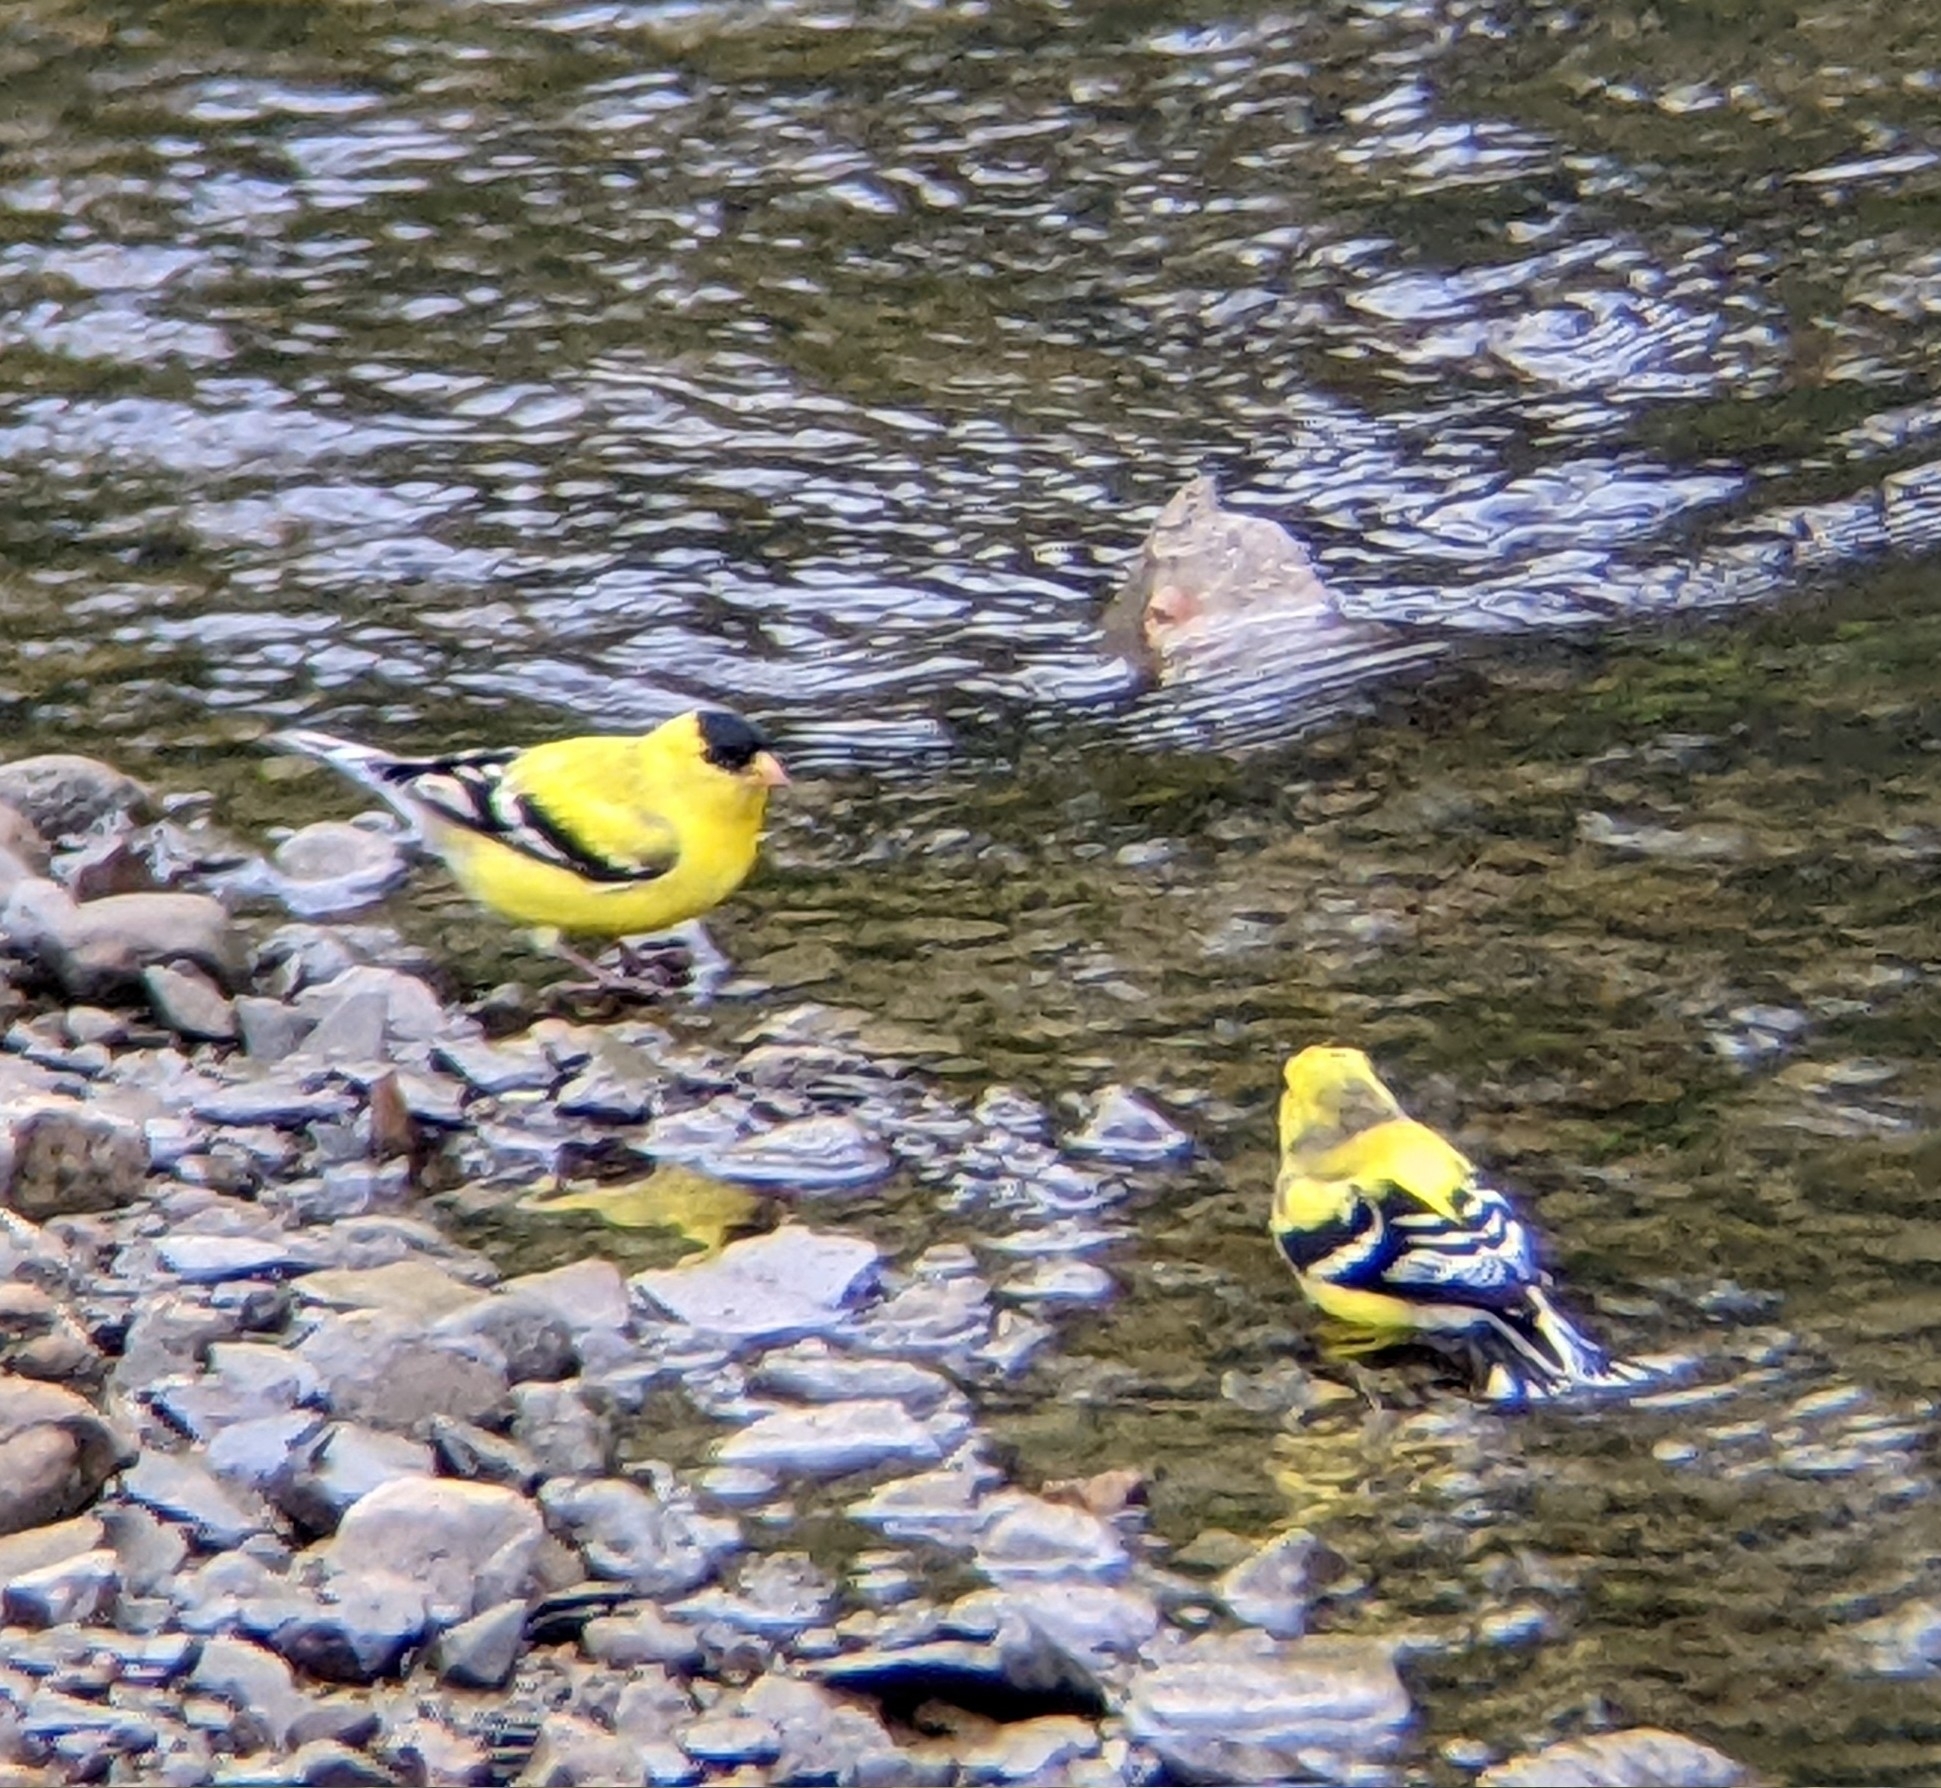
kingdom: Animalia
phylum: Chordata
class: Aves
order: Passeriformes
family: Fringillidae
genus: Spinus
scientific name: Spinus tristis
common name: American goldfinch
